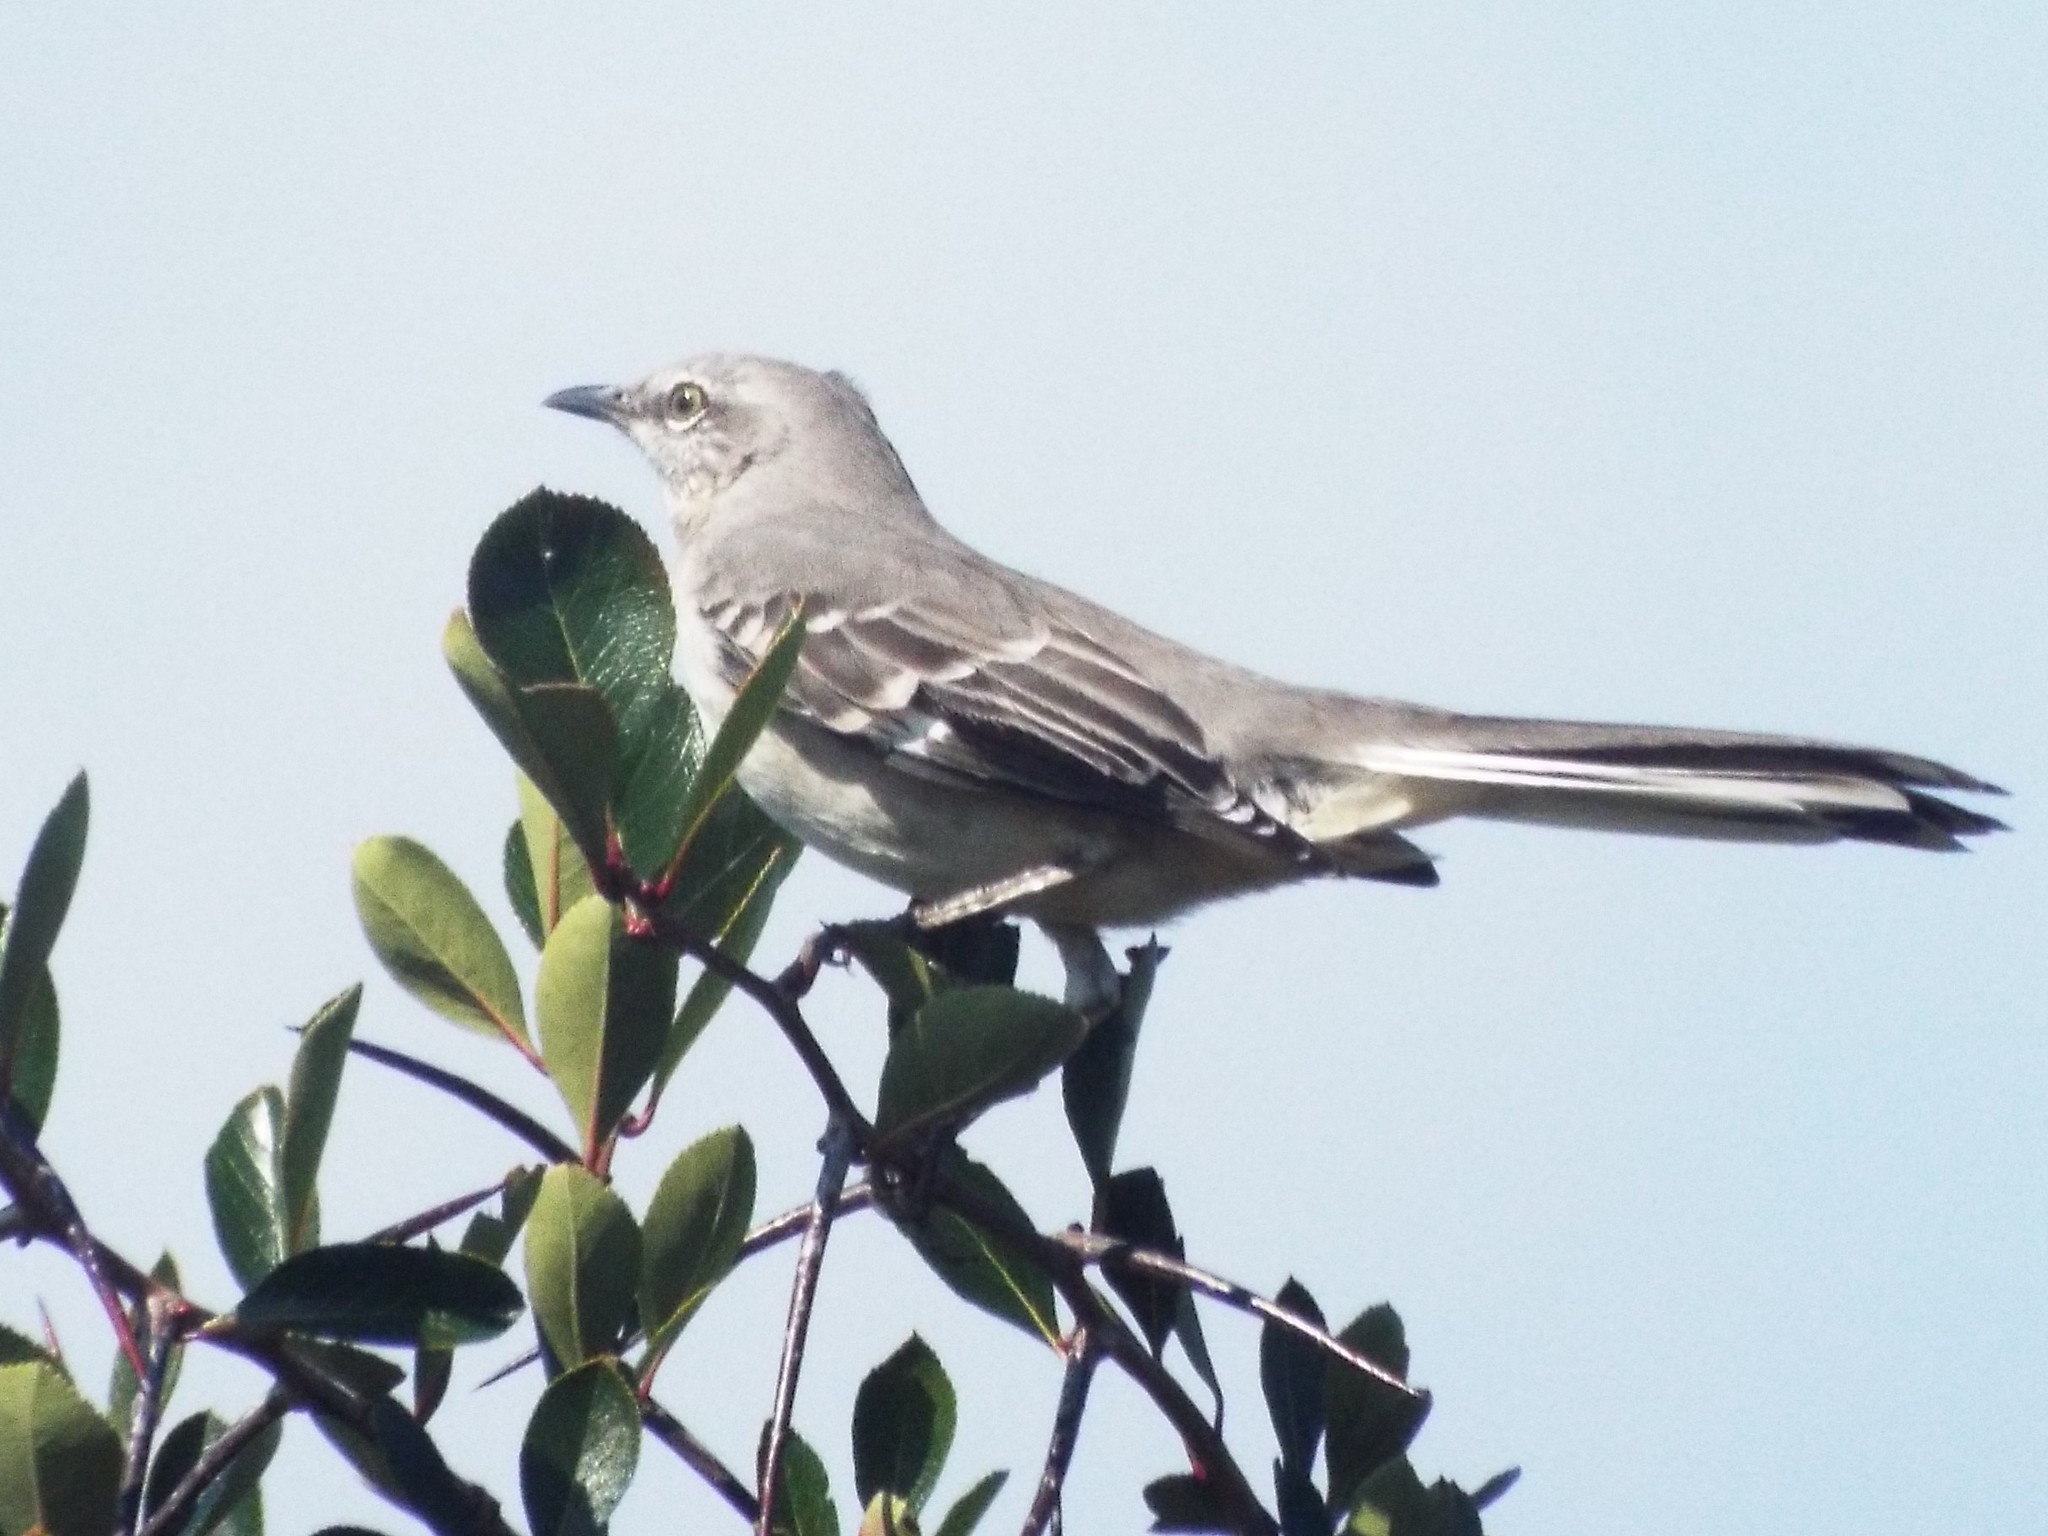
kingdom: Animalia
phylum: Chordata
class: Aves
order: Passeriformes
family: Mimidae
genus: Mimus
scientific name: Mimus polyglottos
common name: Northern mockingbird
